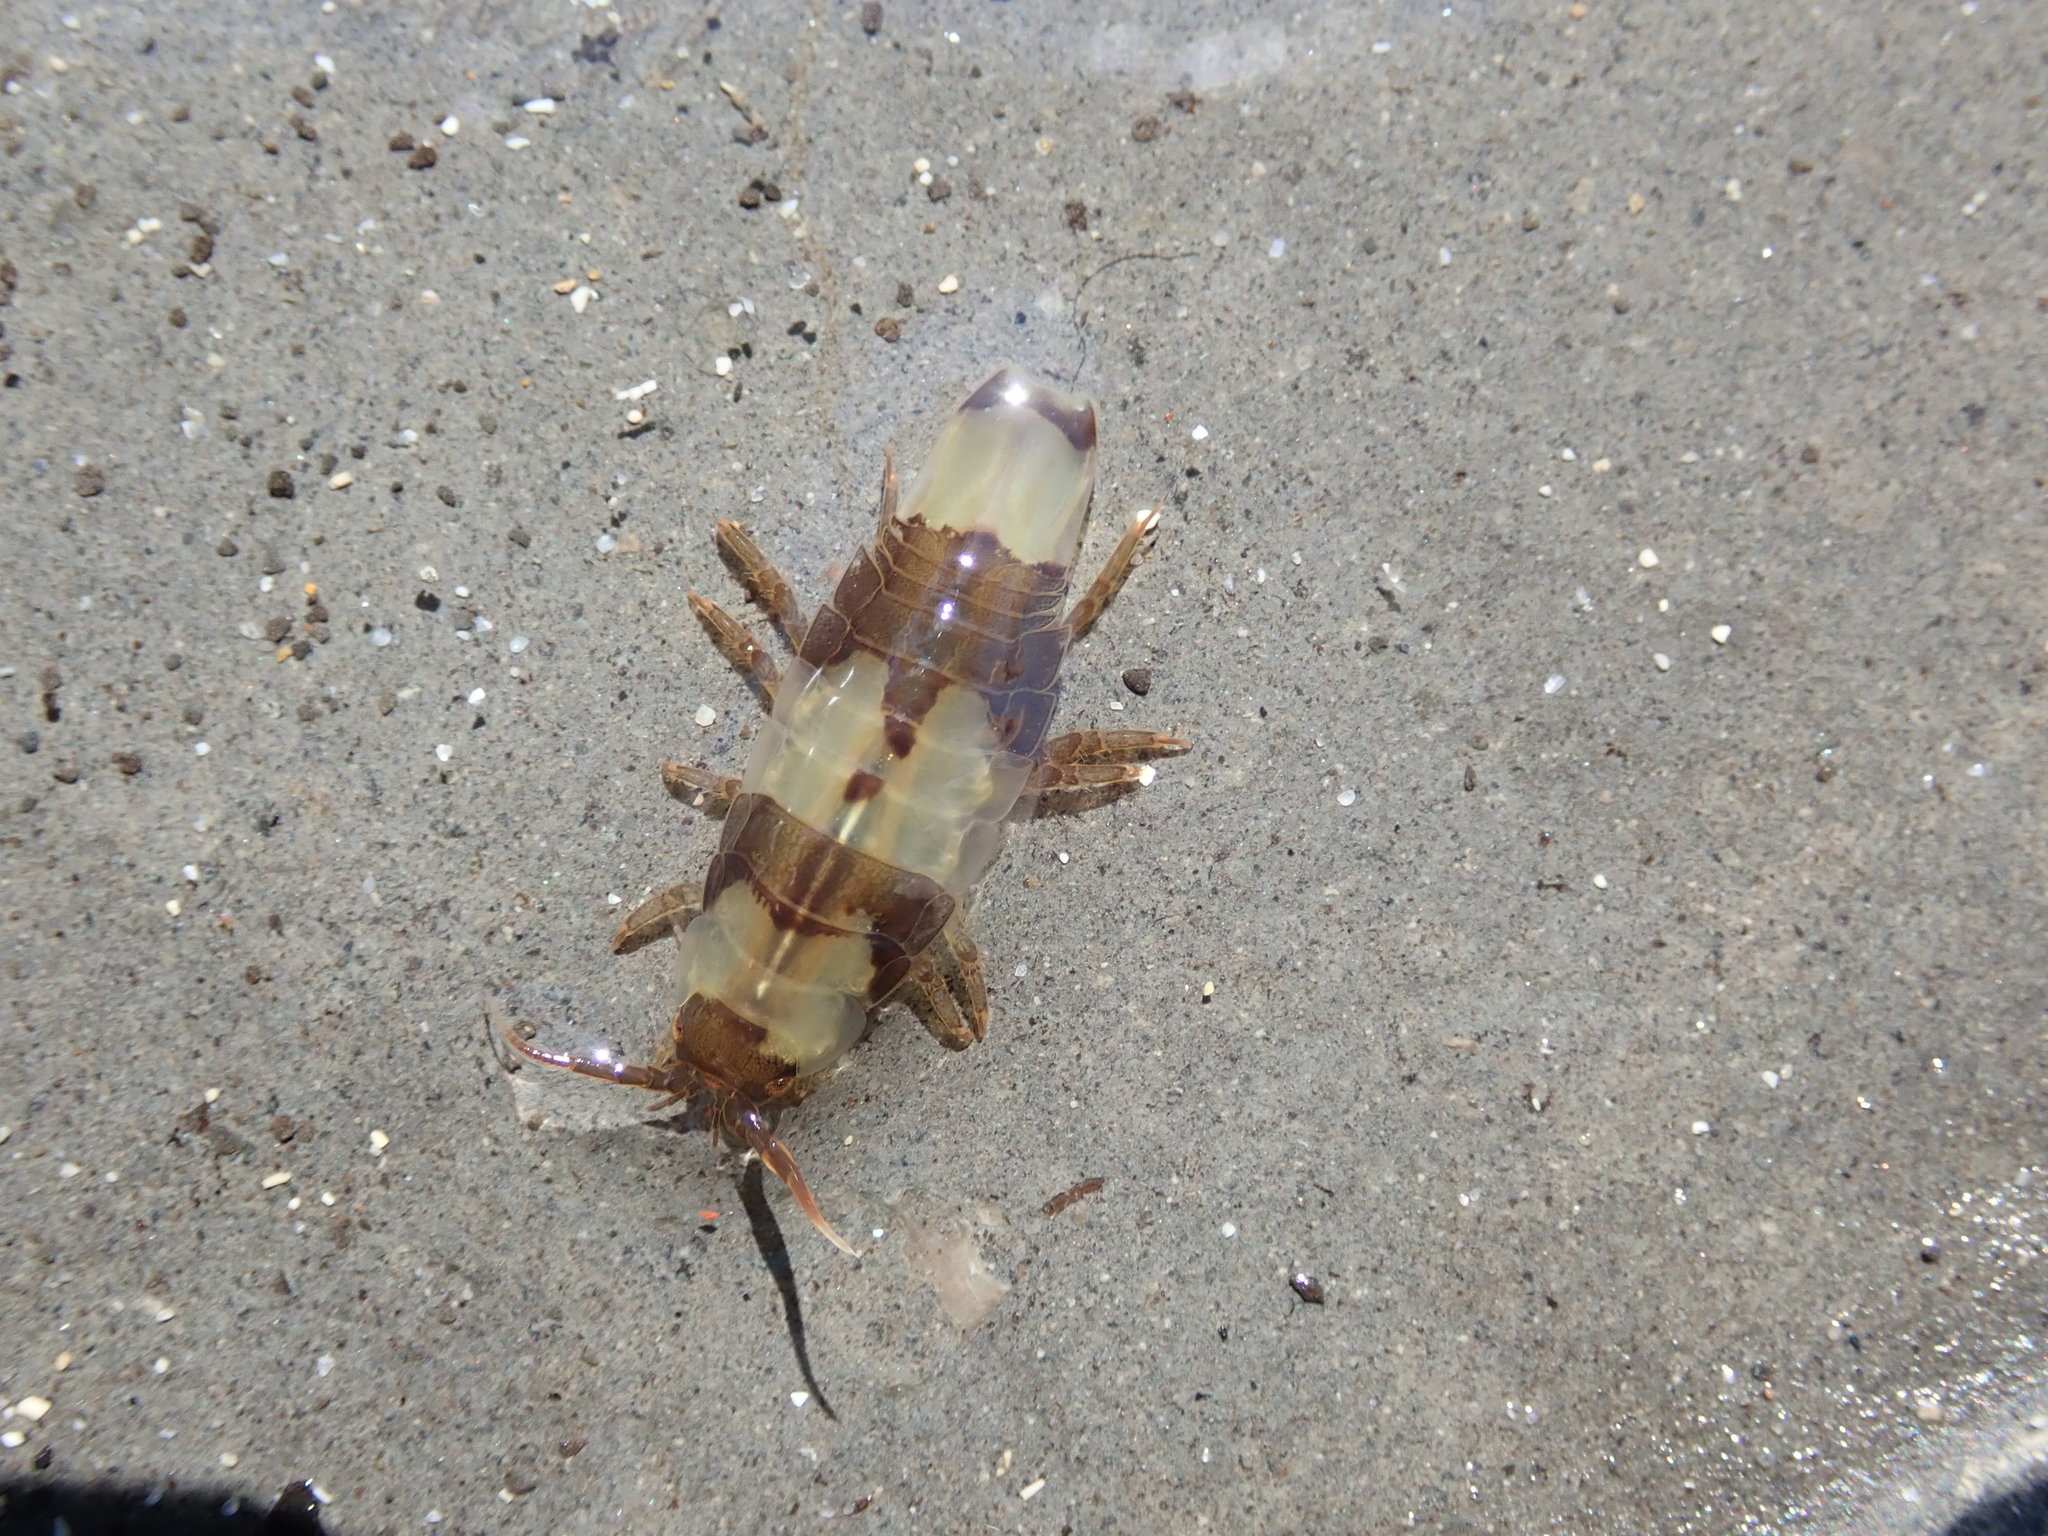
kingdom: Animalia
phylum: Arthropoda
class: Malacostraca
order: Isopoda
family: Idoteidae
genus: Idotea
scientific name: Idotea emarginata
